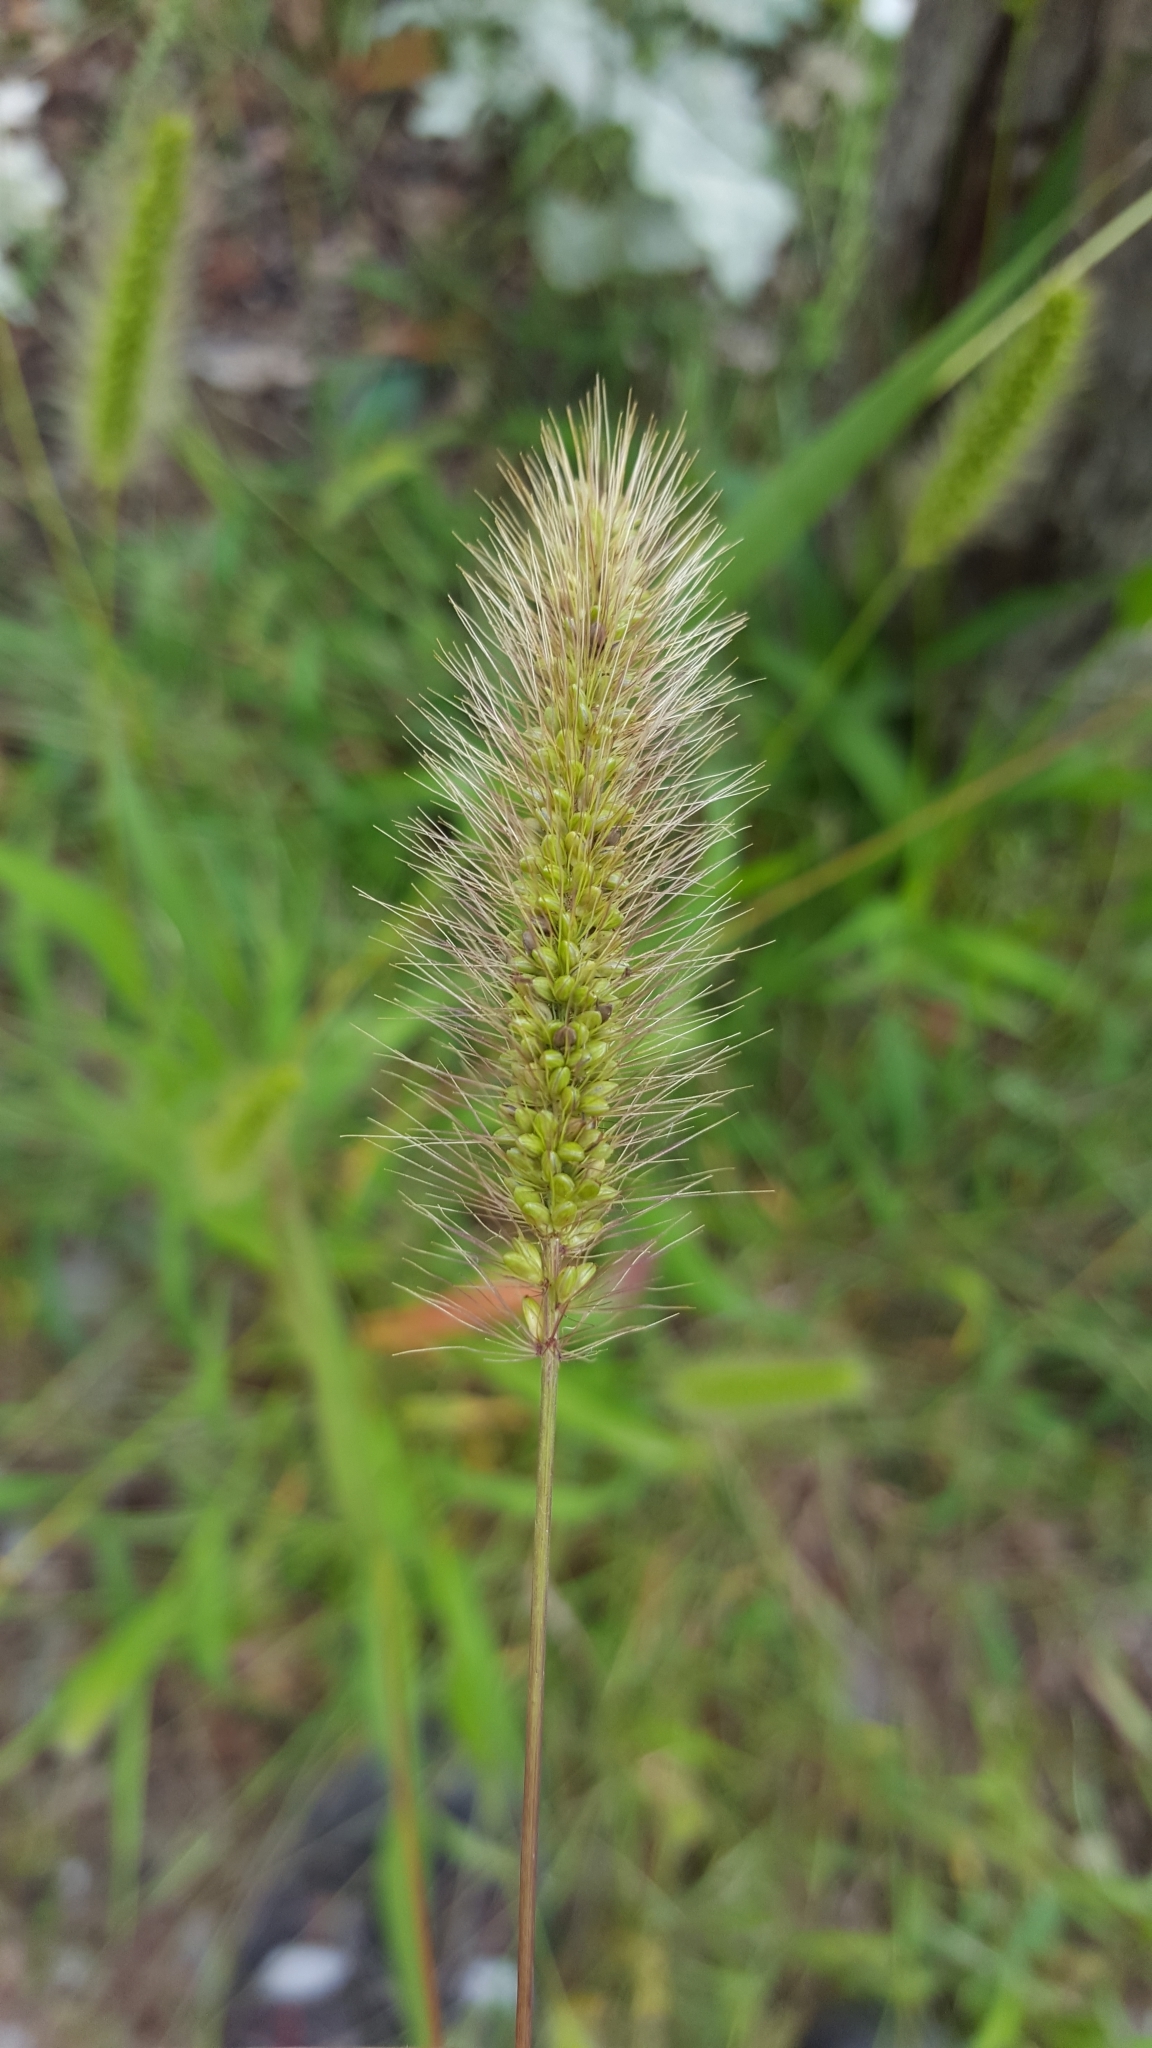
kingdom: Plantae
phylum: Tracheophyta
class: Liliopsida
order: Poales
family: Poaceae
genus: Setaria
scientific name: Setaria viridis
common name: Green bristlegrass
